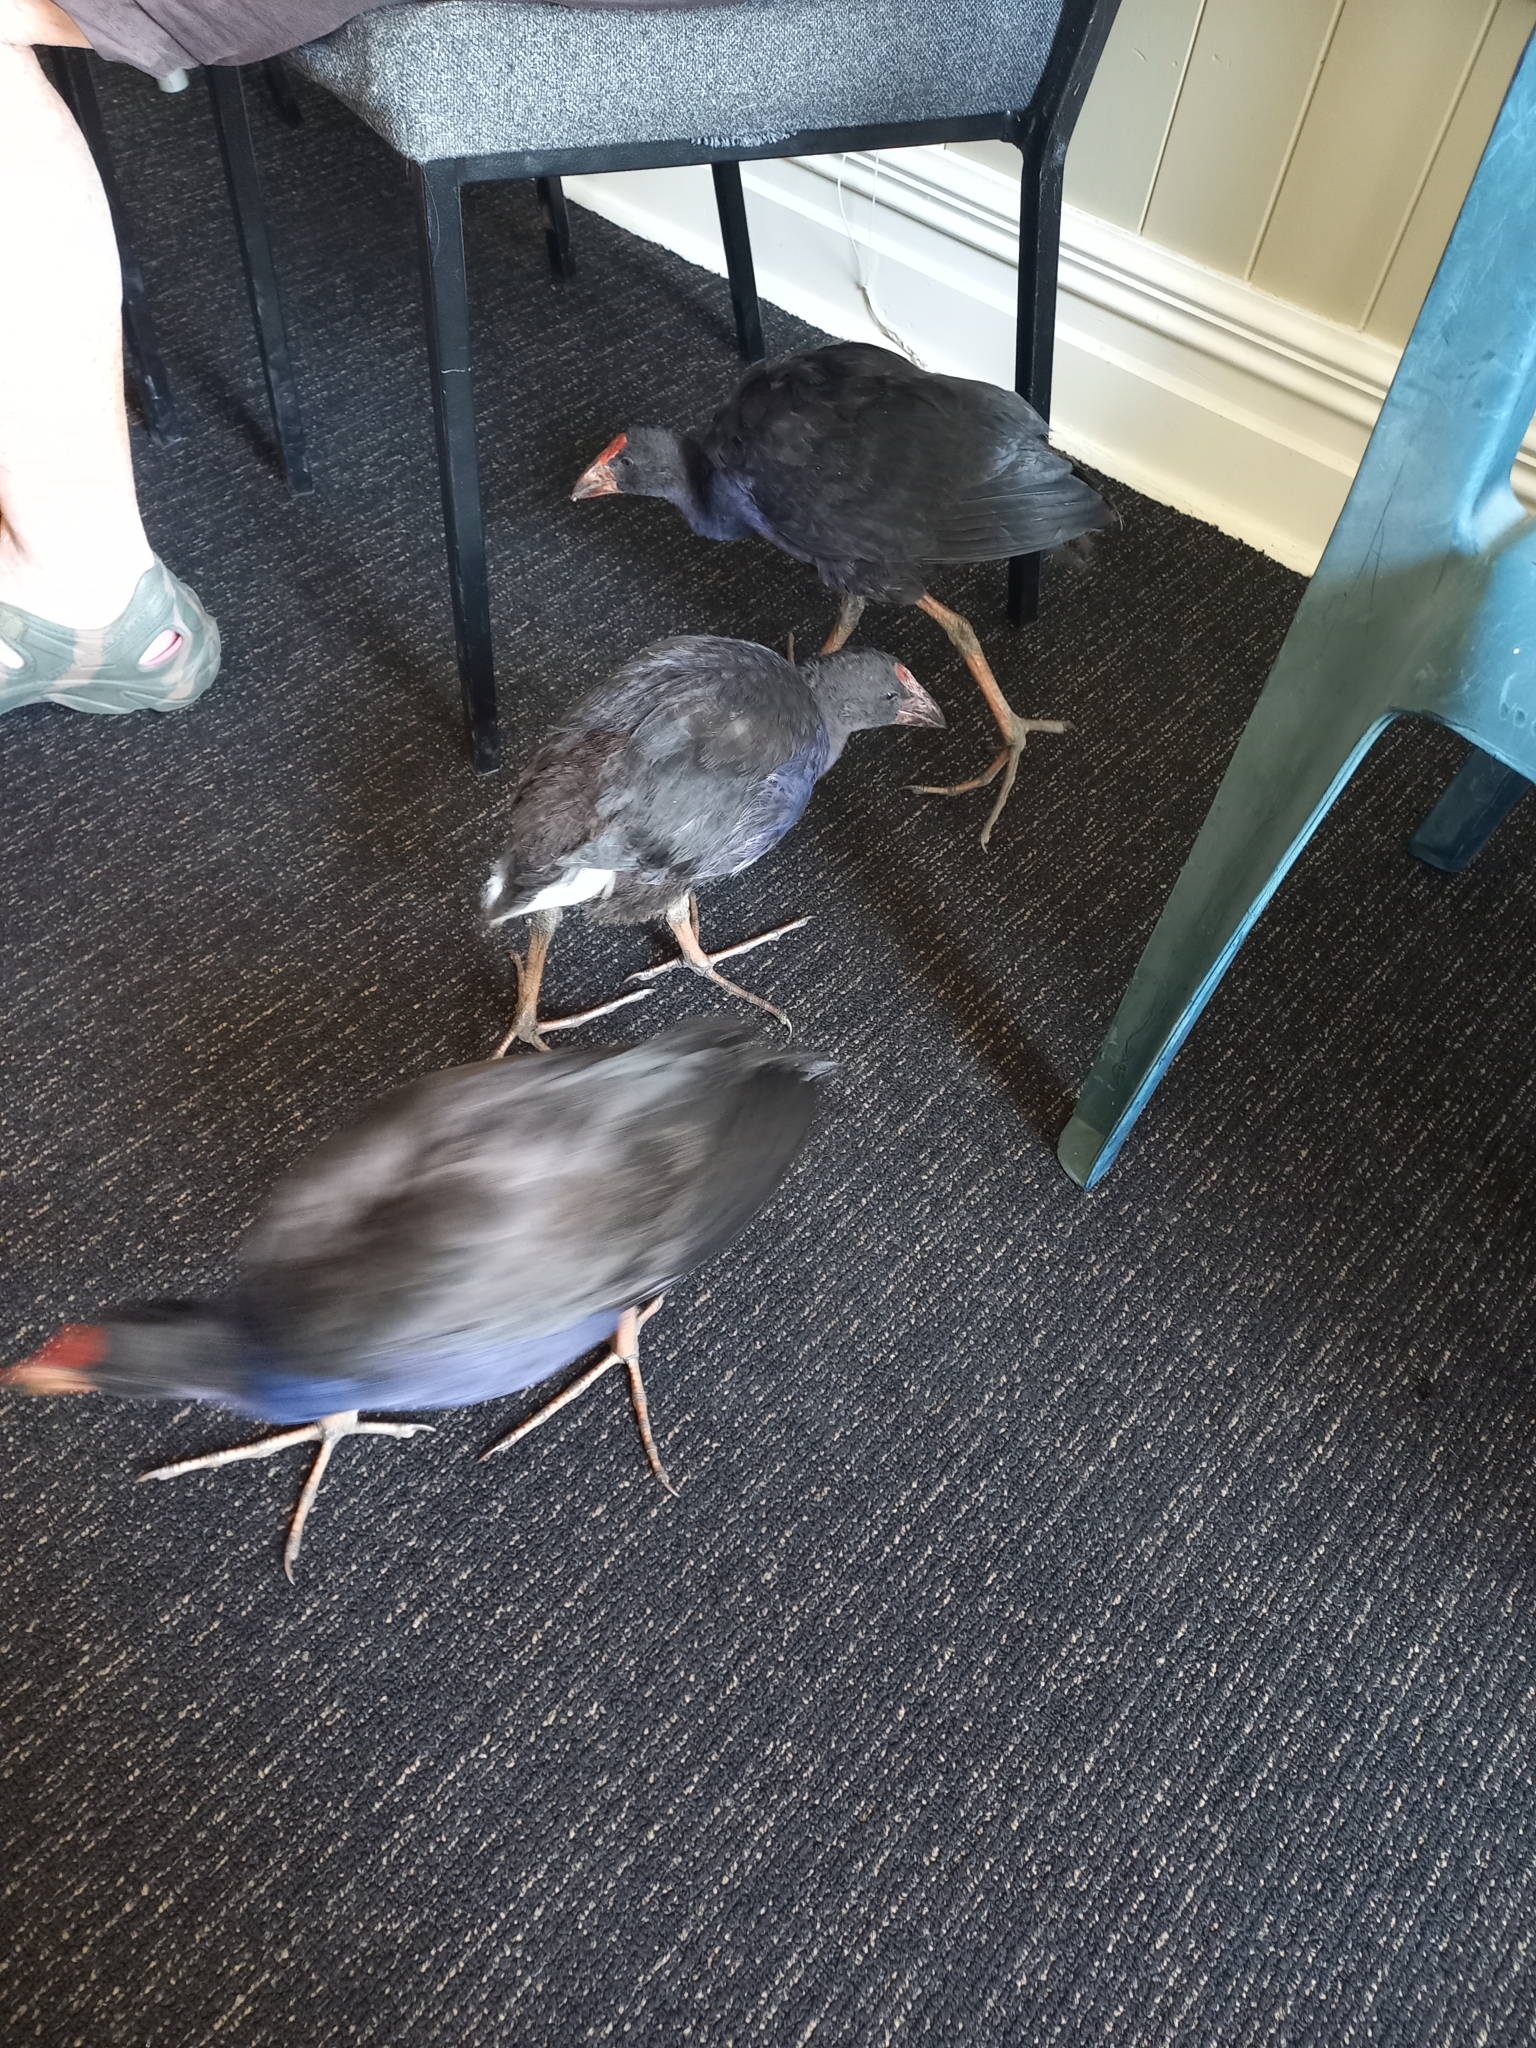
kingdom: Animalia
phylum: Chordata
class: Aves
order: Gruiformes
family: Rallidae
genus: Porphyrio
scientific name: Porphyrio melanotus
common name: Australasian swamphen
